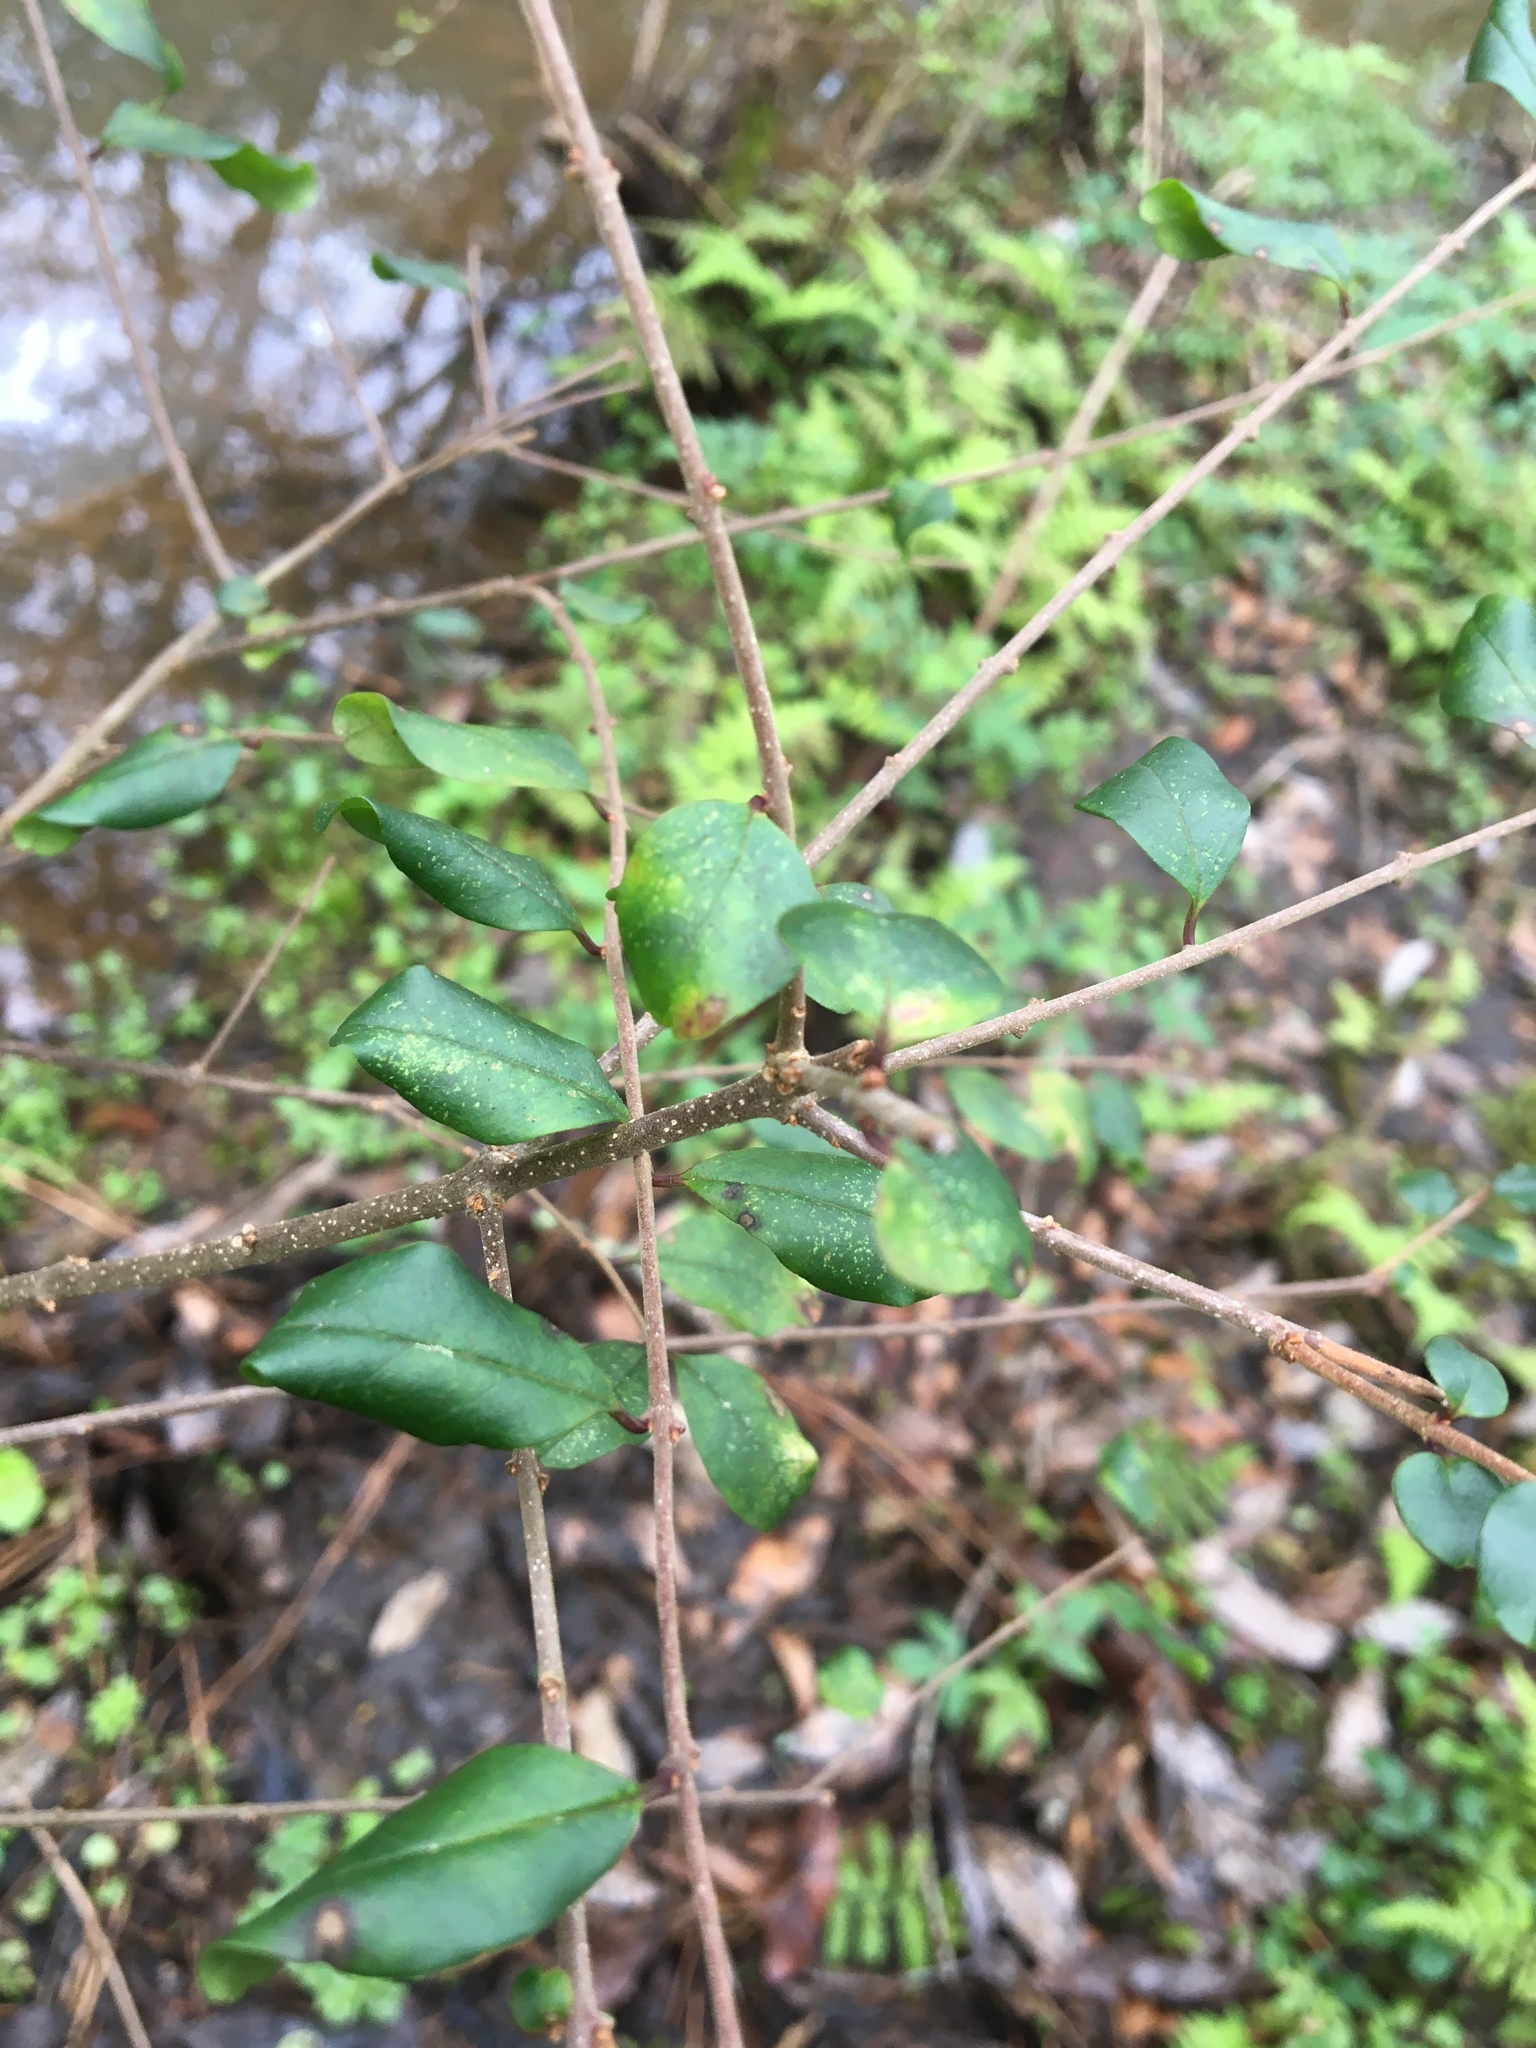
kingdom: Plantae
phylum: Tracheophyta
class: Magnoliopsida
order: Lamiales
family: Oleaceae
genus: Ligustrum
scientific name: Ligustrum sinense
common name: Chinese privet
